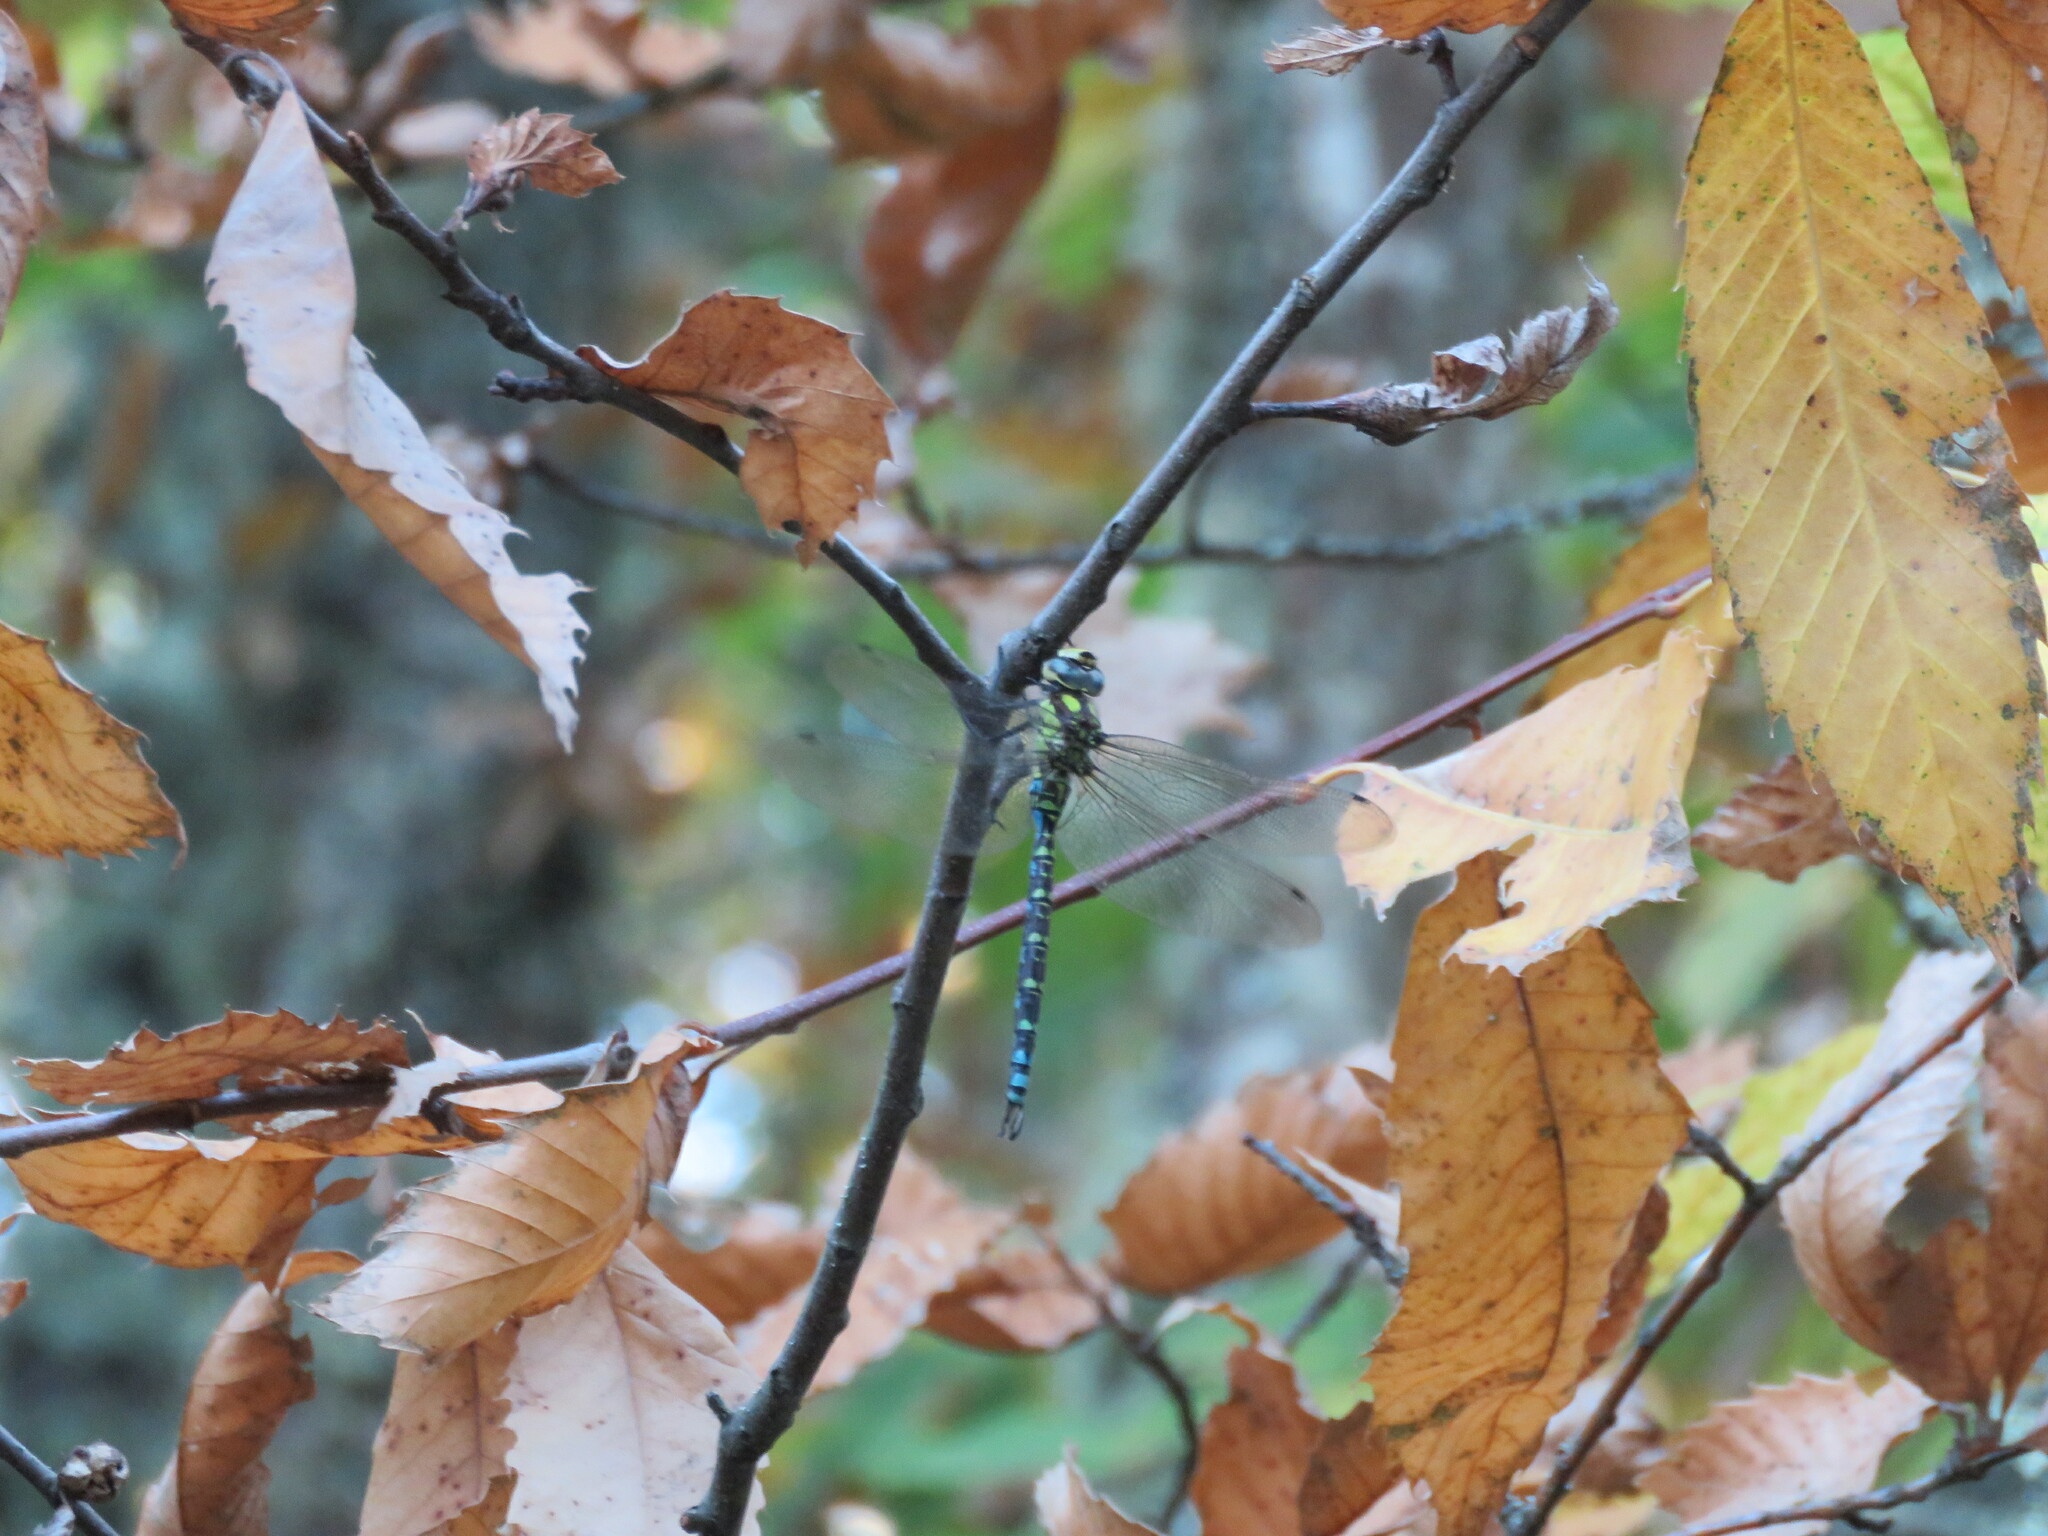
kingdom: Animalia
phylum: Arthropoda
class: Insecta
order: Odonata
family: Aeshnidae
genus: Aeshna
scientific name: Aeshna cyanea
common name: Southern hawker
